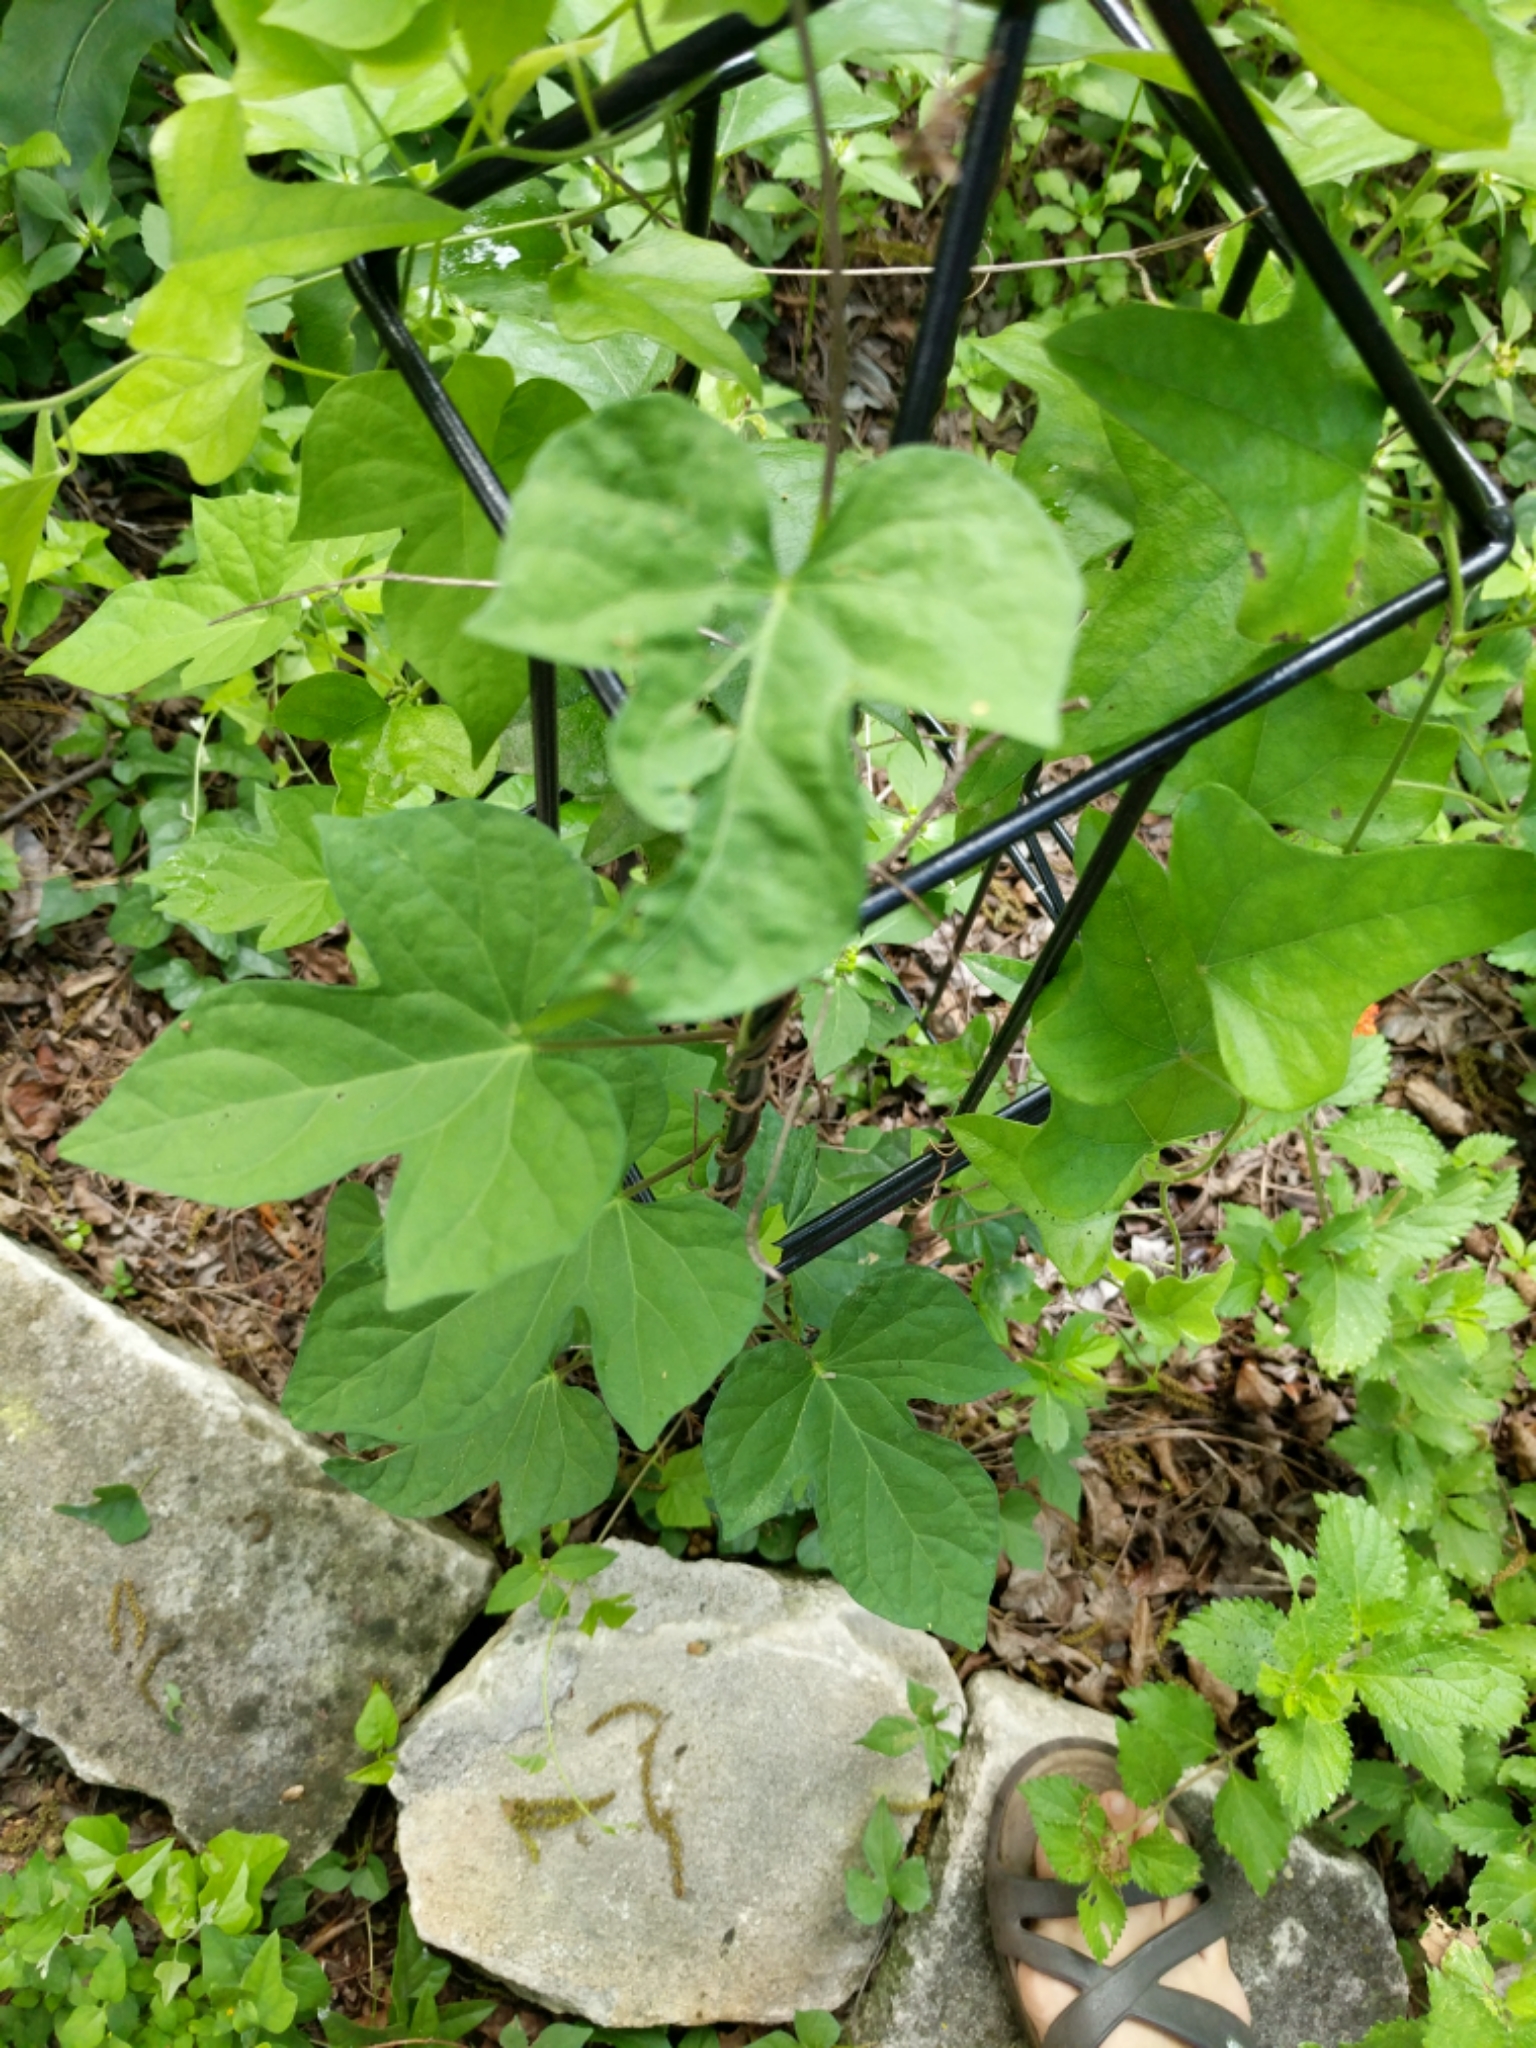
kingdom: Plantae
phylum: Tracheophyta
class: Magnoliopsida
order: Solanales
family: Convolvulaceae
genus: Ipomoea
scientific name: Ipomoea cordatotriloba
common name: Cotton morning glory
